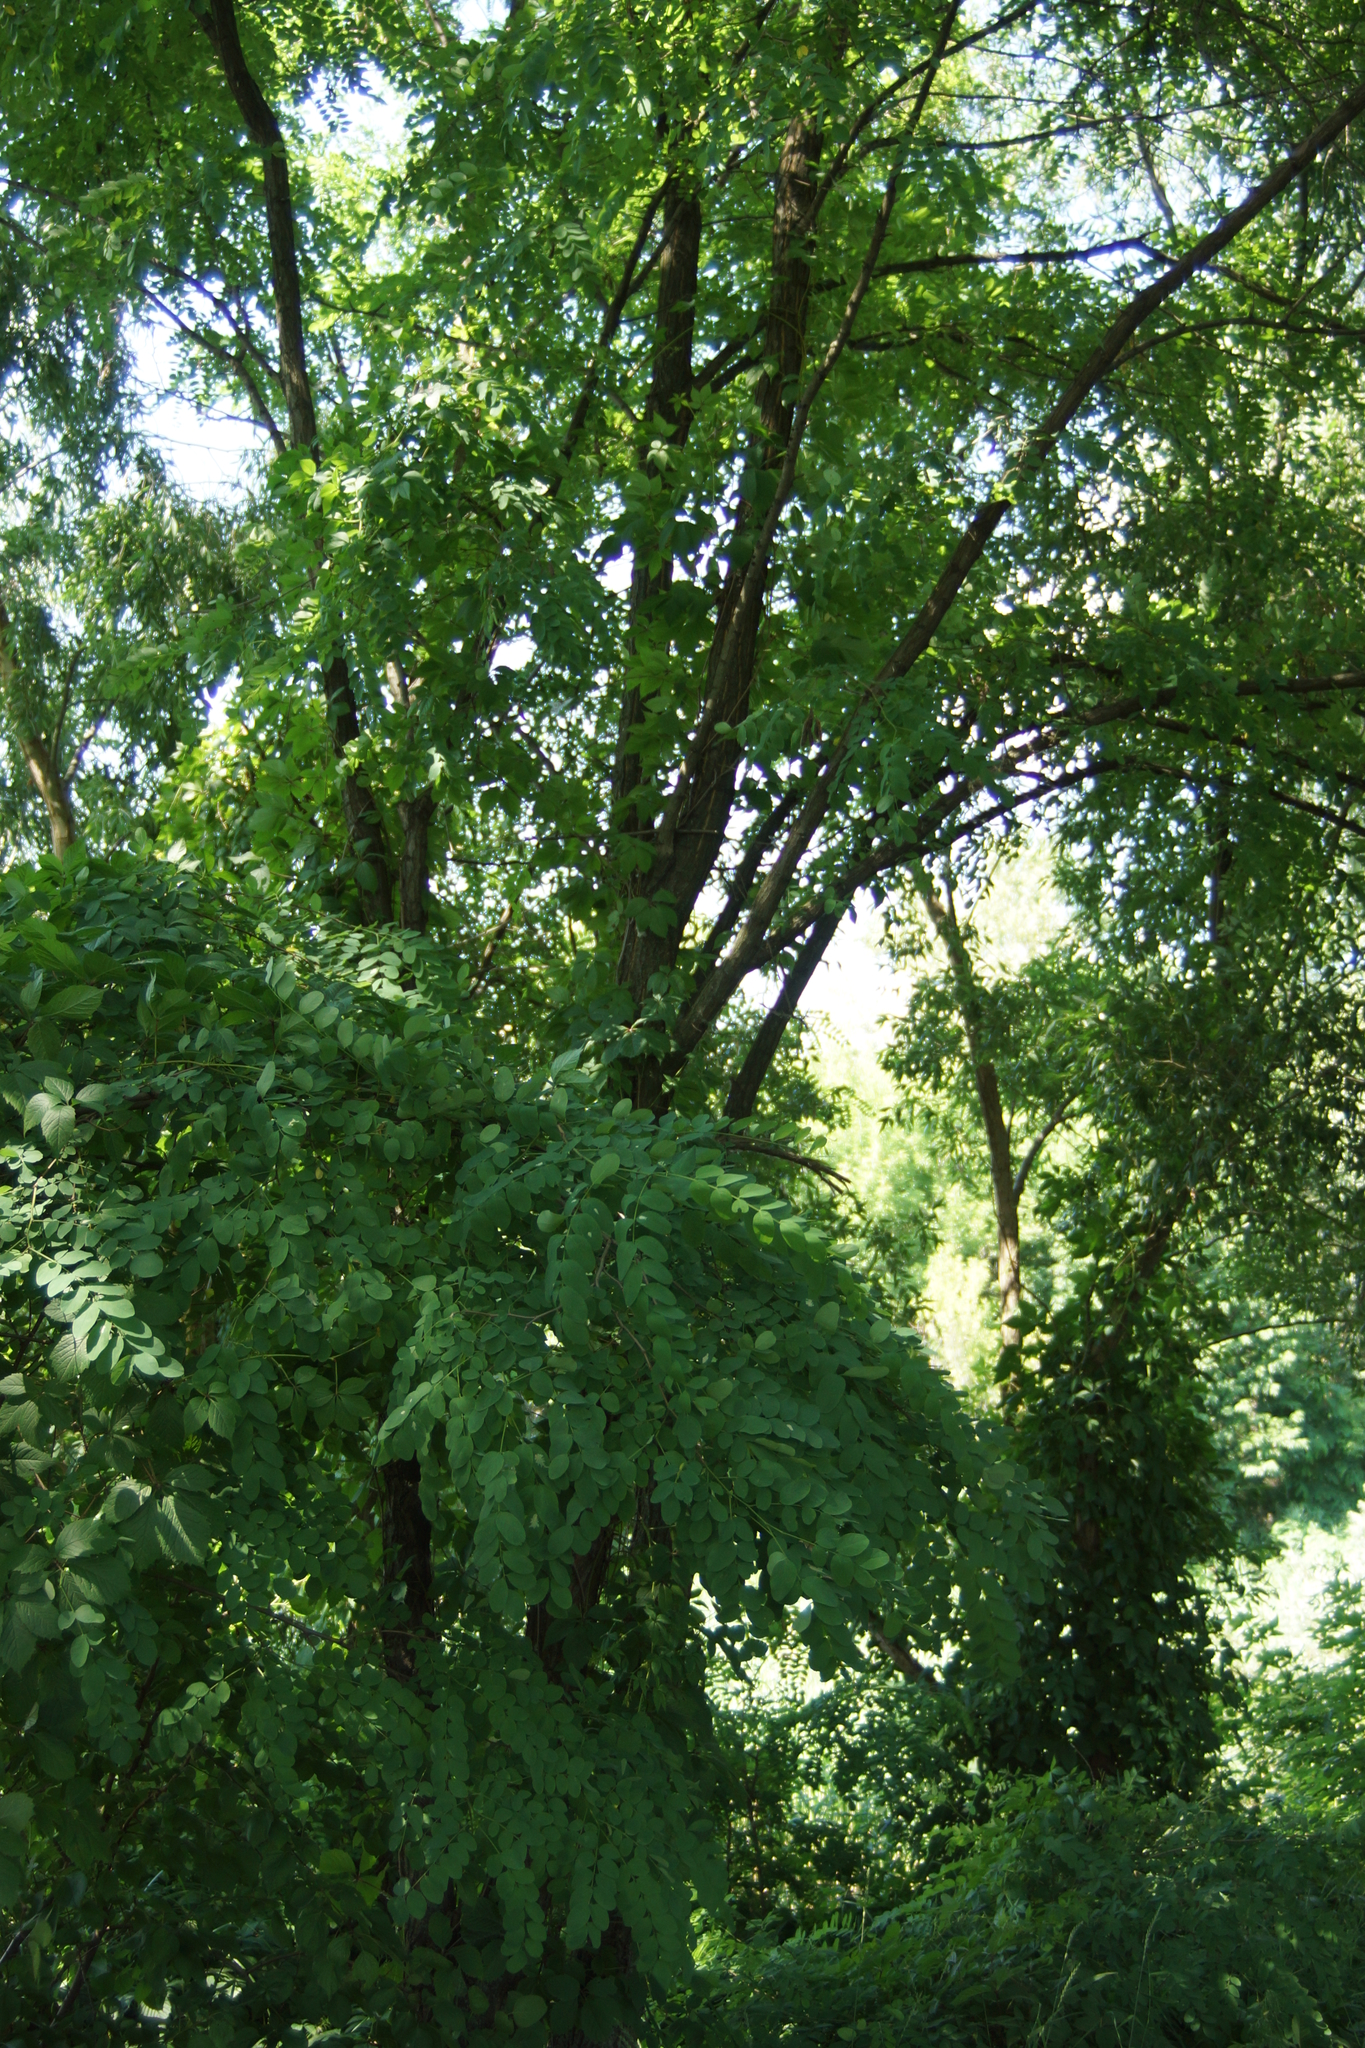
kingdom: Plantae
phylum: Tracheophyta
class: Magnoliopsida
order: Fabales
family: Fabaceae
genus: Robinia
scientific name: Robinia pseudoacacia
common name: Black locust
